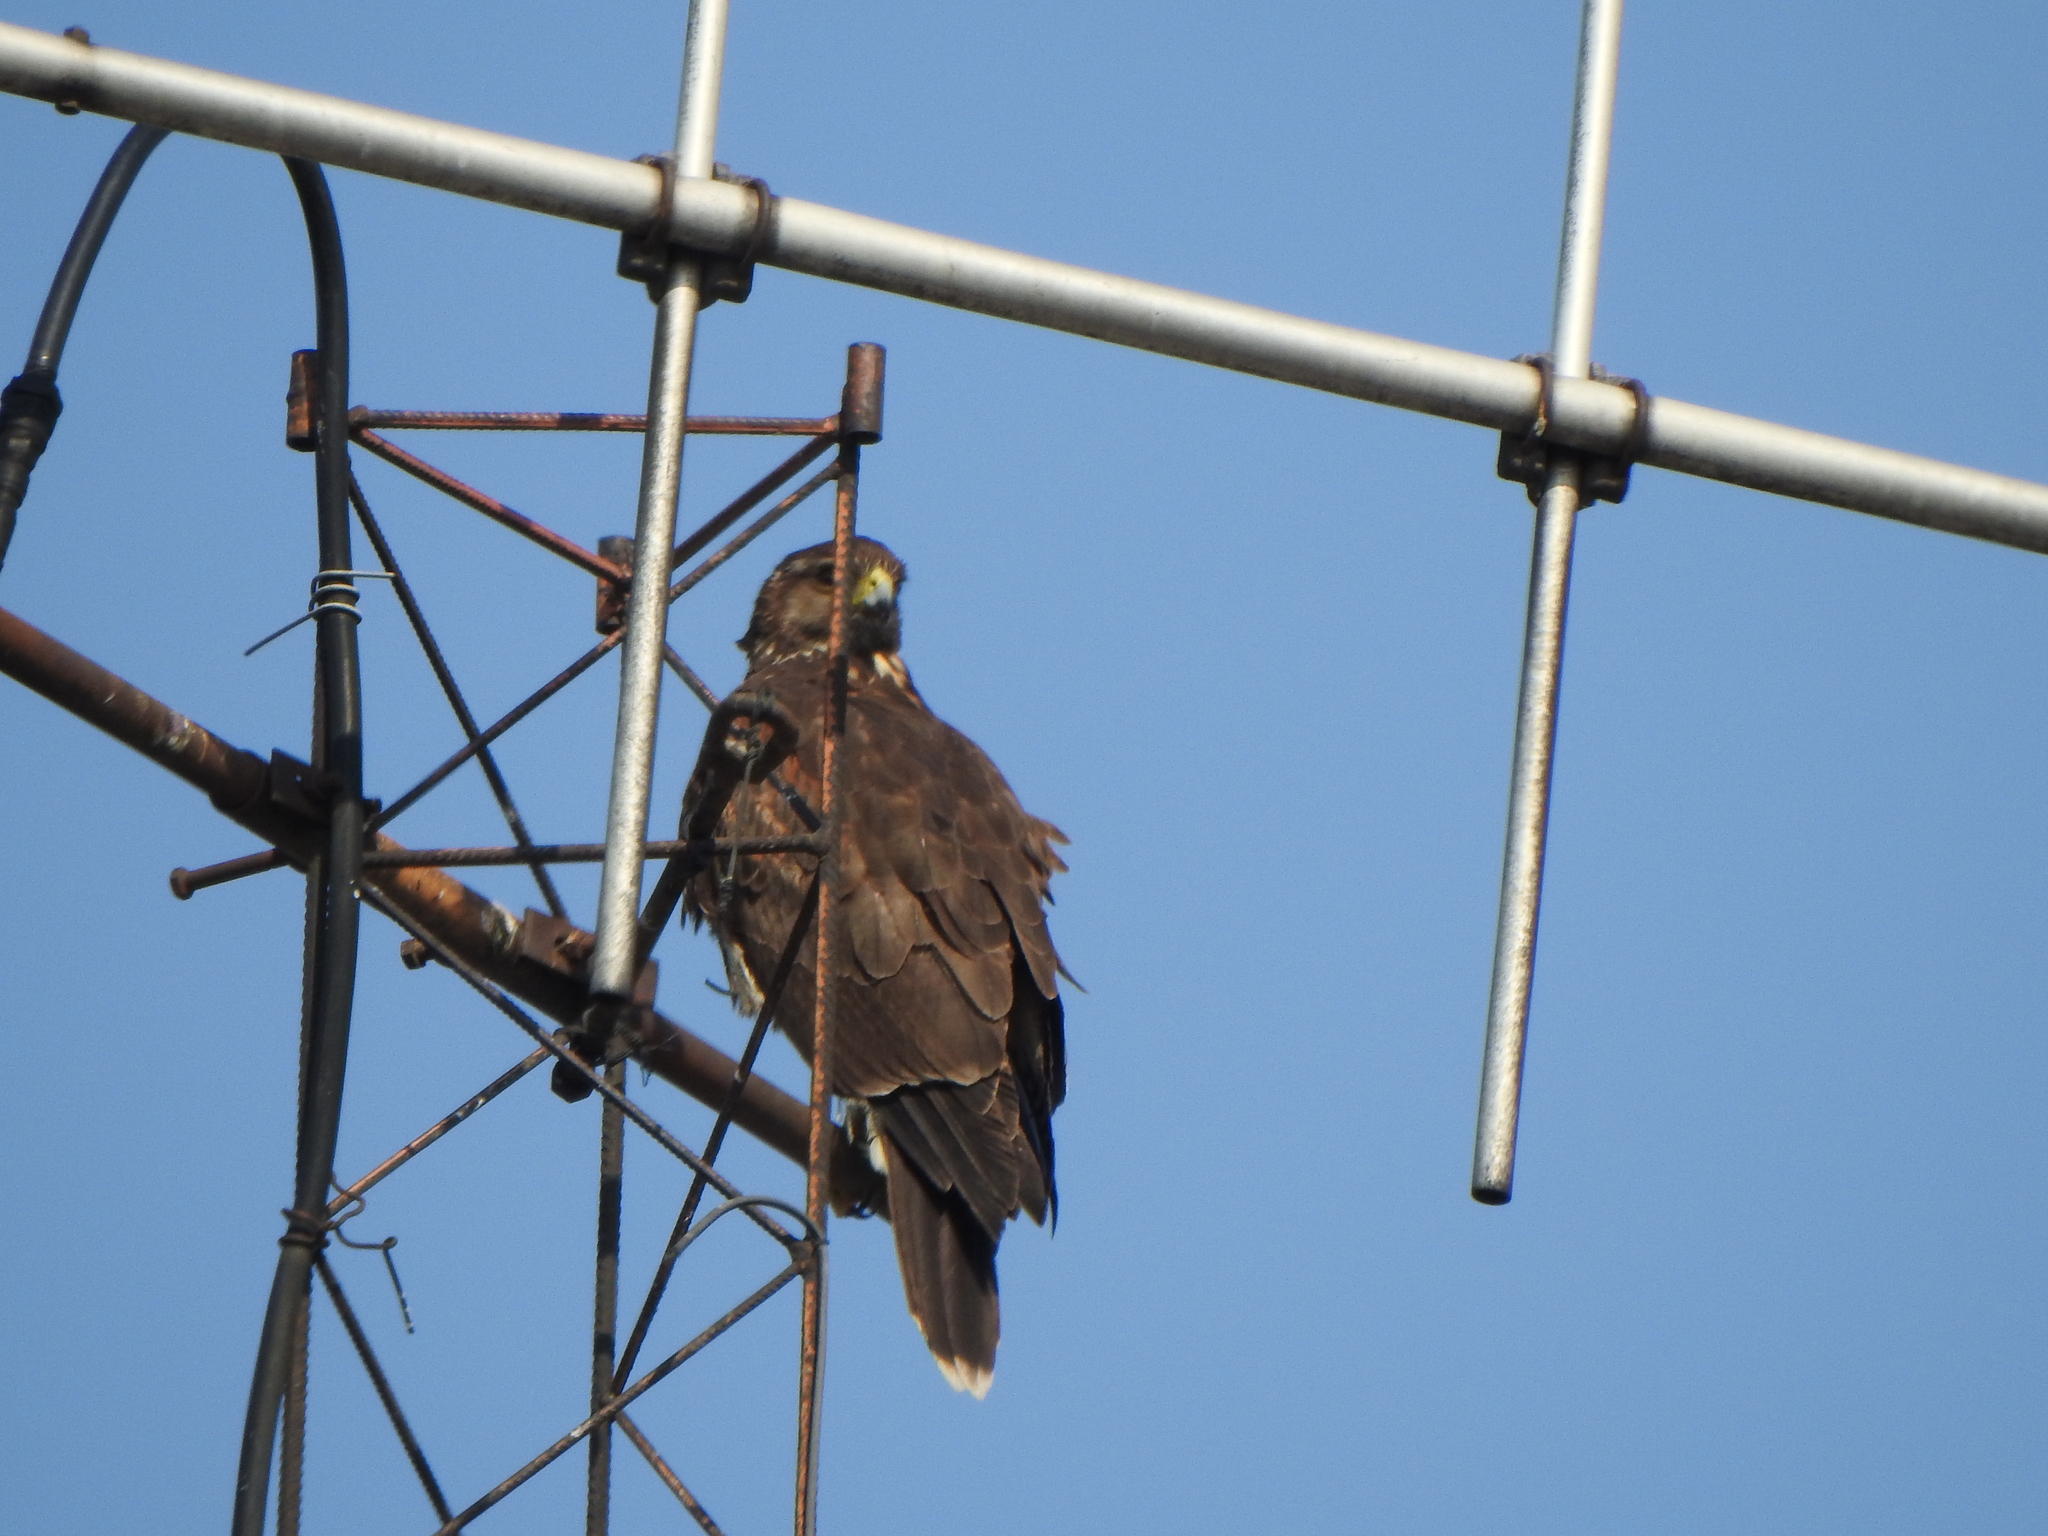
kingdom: Animalia
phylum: Chordata
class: Aves
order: Accipitriformes
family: Accipitridae
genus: Parabuteo
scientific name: Parabuteo unicinctus
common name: Harris's hawk
